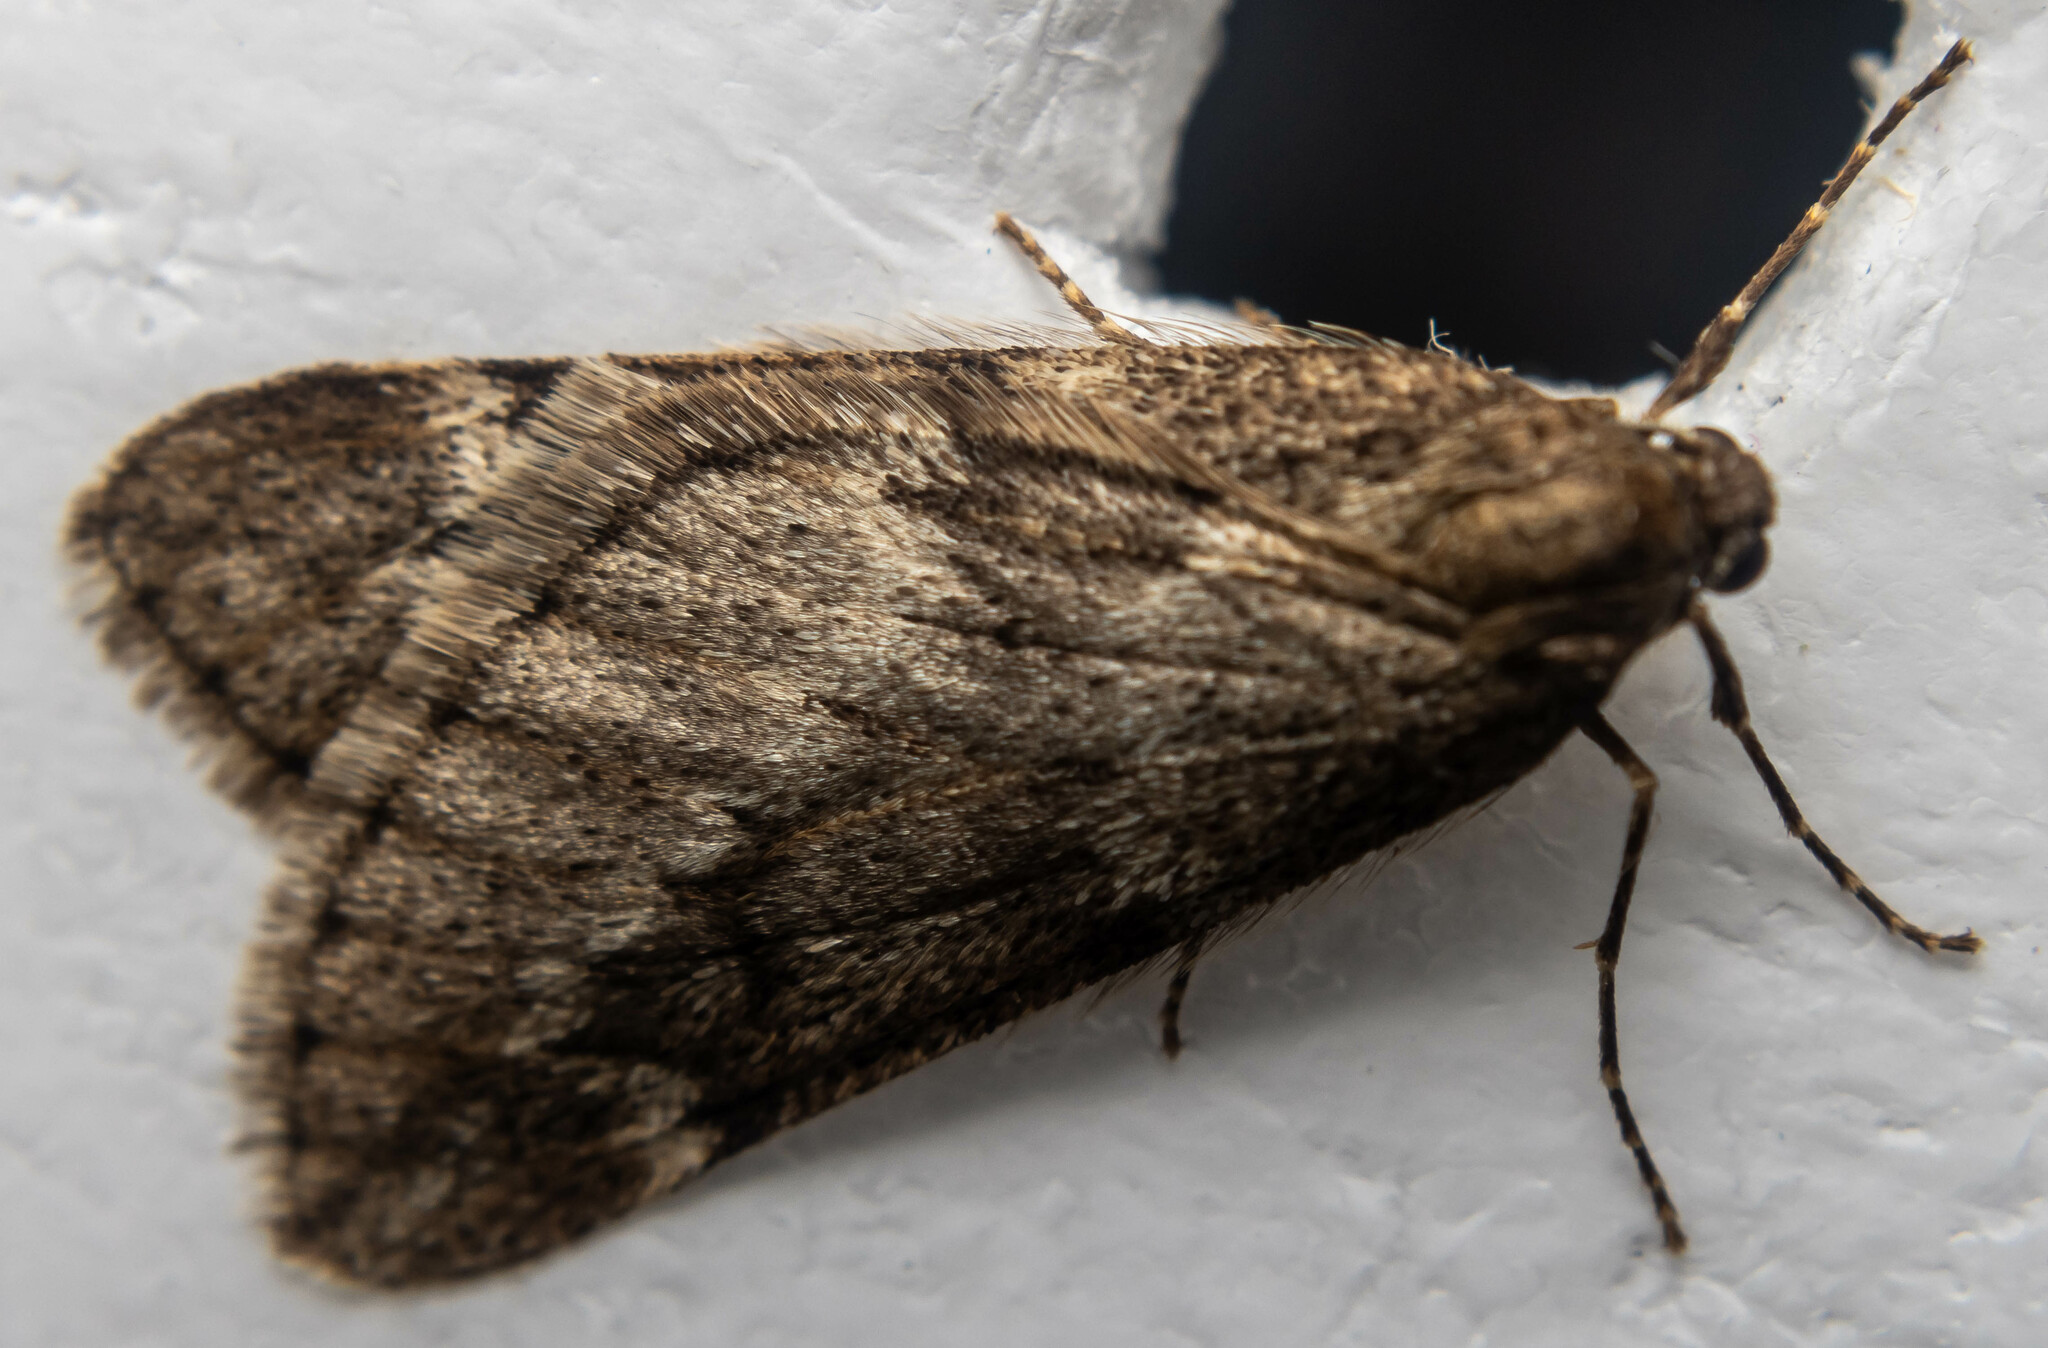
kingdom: Animalia
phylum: Arthropoda
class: Insecta
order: Lepidoptera
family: Geometridae
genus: Alsophila
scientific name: Alsophila aescularia
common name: March moth
